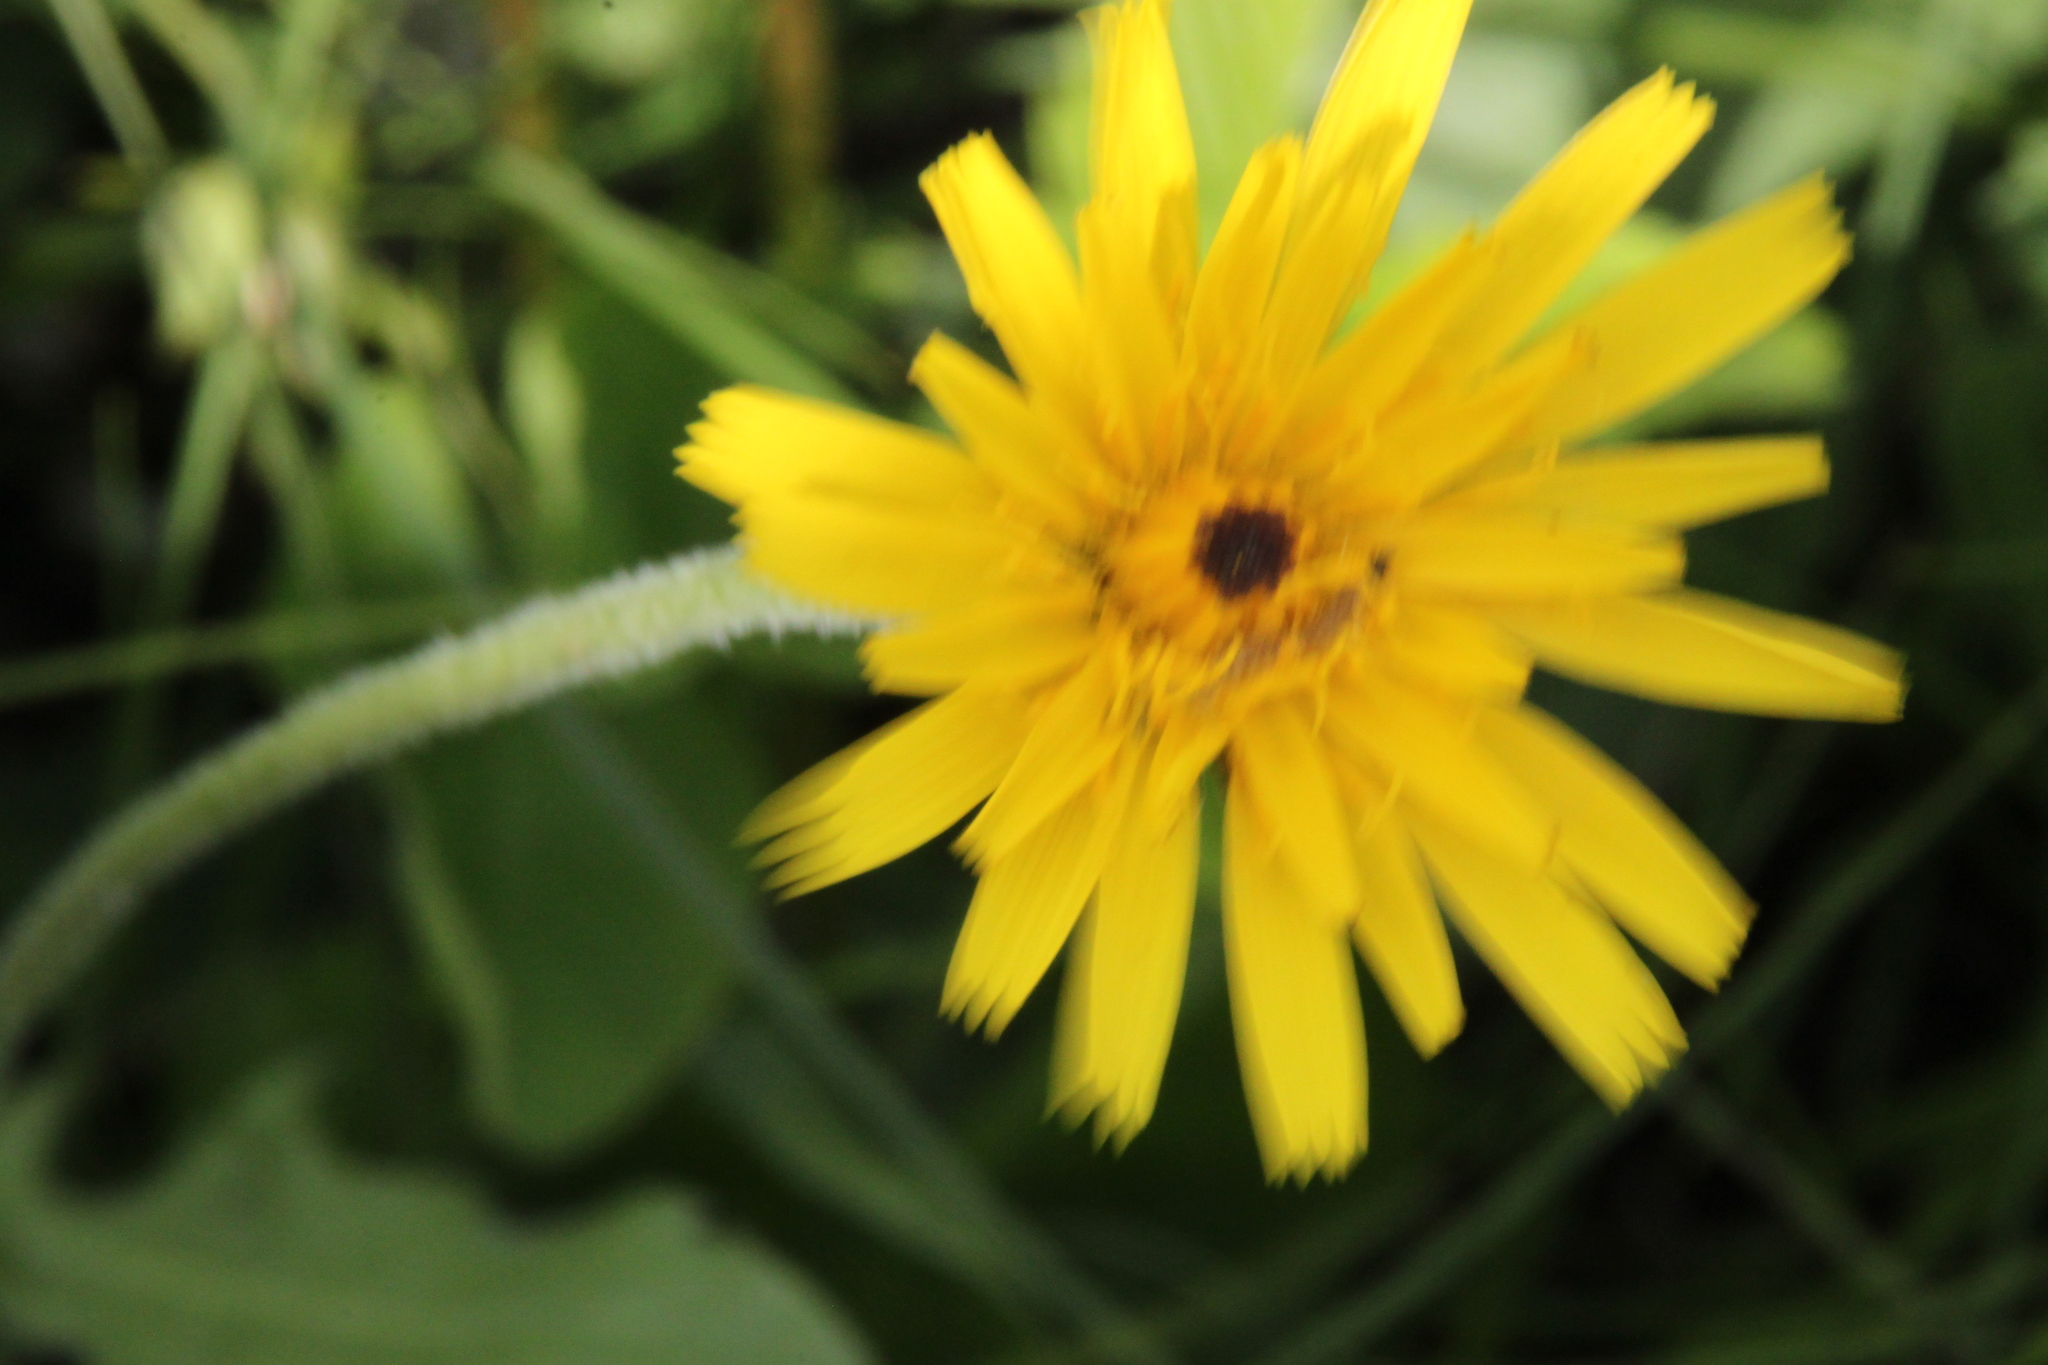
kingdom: Plantae
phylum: Tracheophyta
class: Magnoliopsida
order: Asterales
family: Asteraceae
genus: Leontodon
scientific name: Leontodon hispidus
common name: Rough hawkbit
